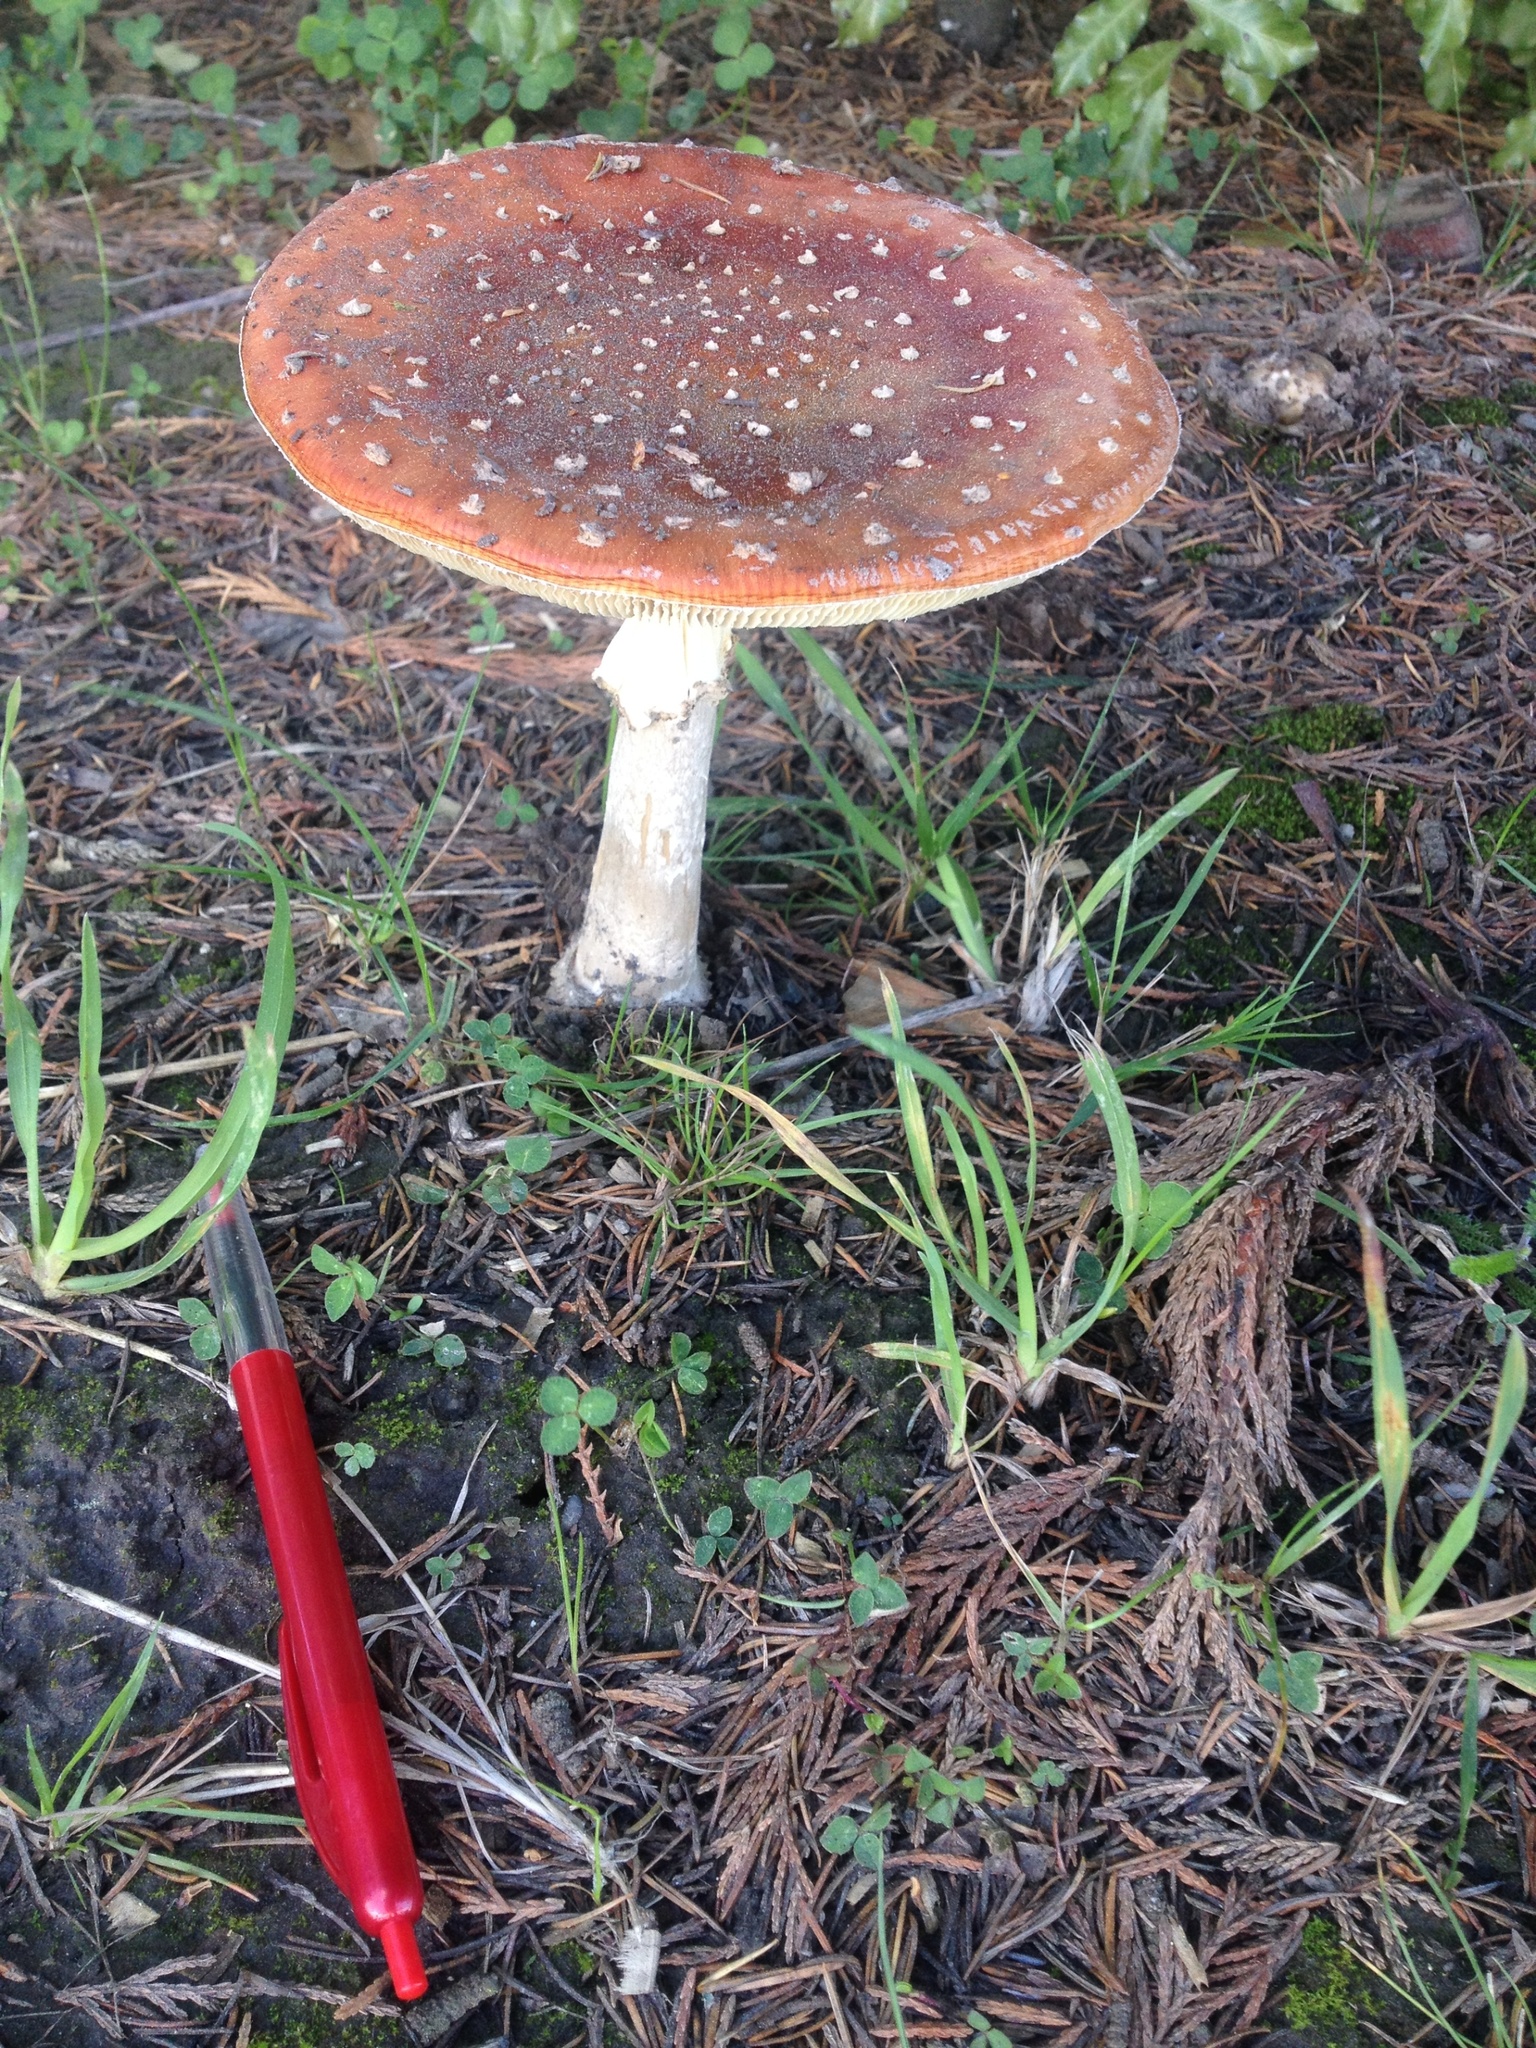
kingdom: Fungi
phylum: Basidiomycota
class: Agaricomycetes
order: Agaricales
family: Amanitaceae
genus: Amanita
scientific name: Amanita muscaria
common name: Fly agaric
